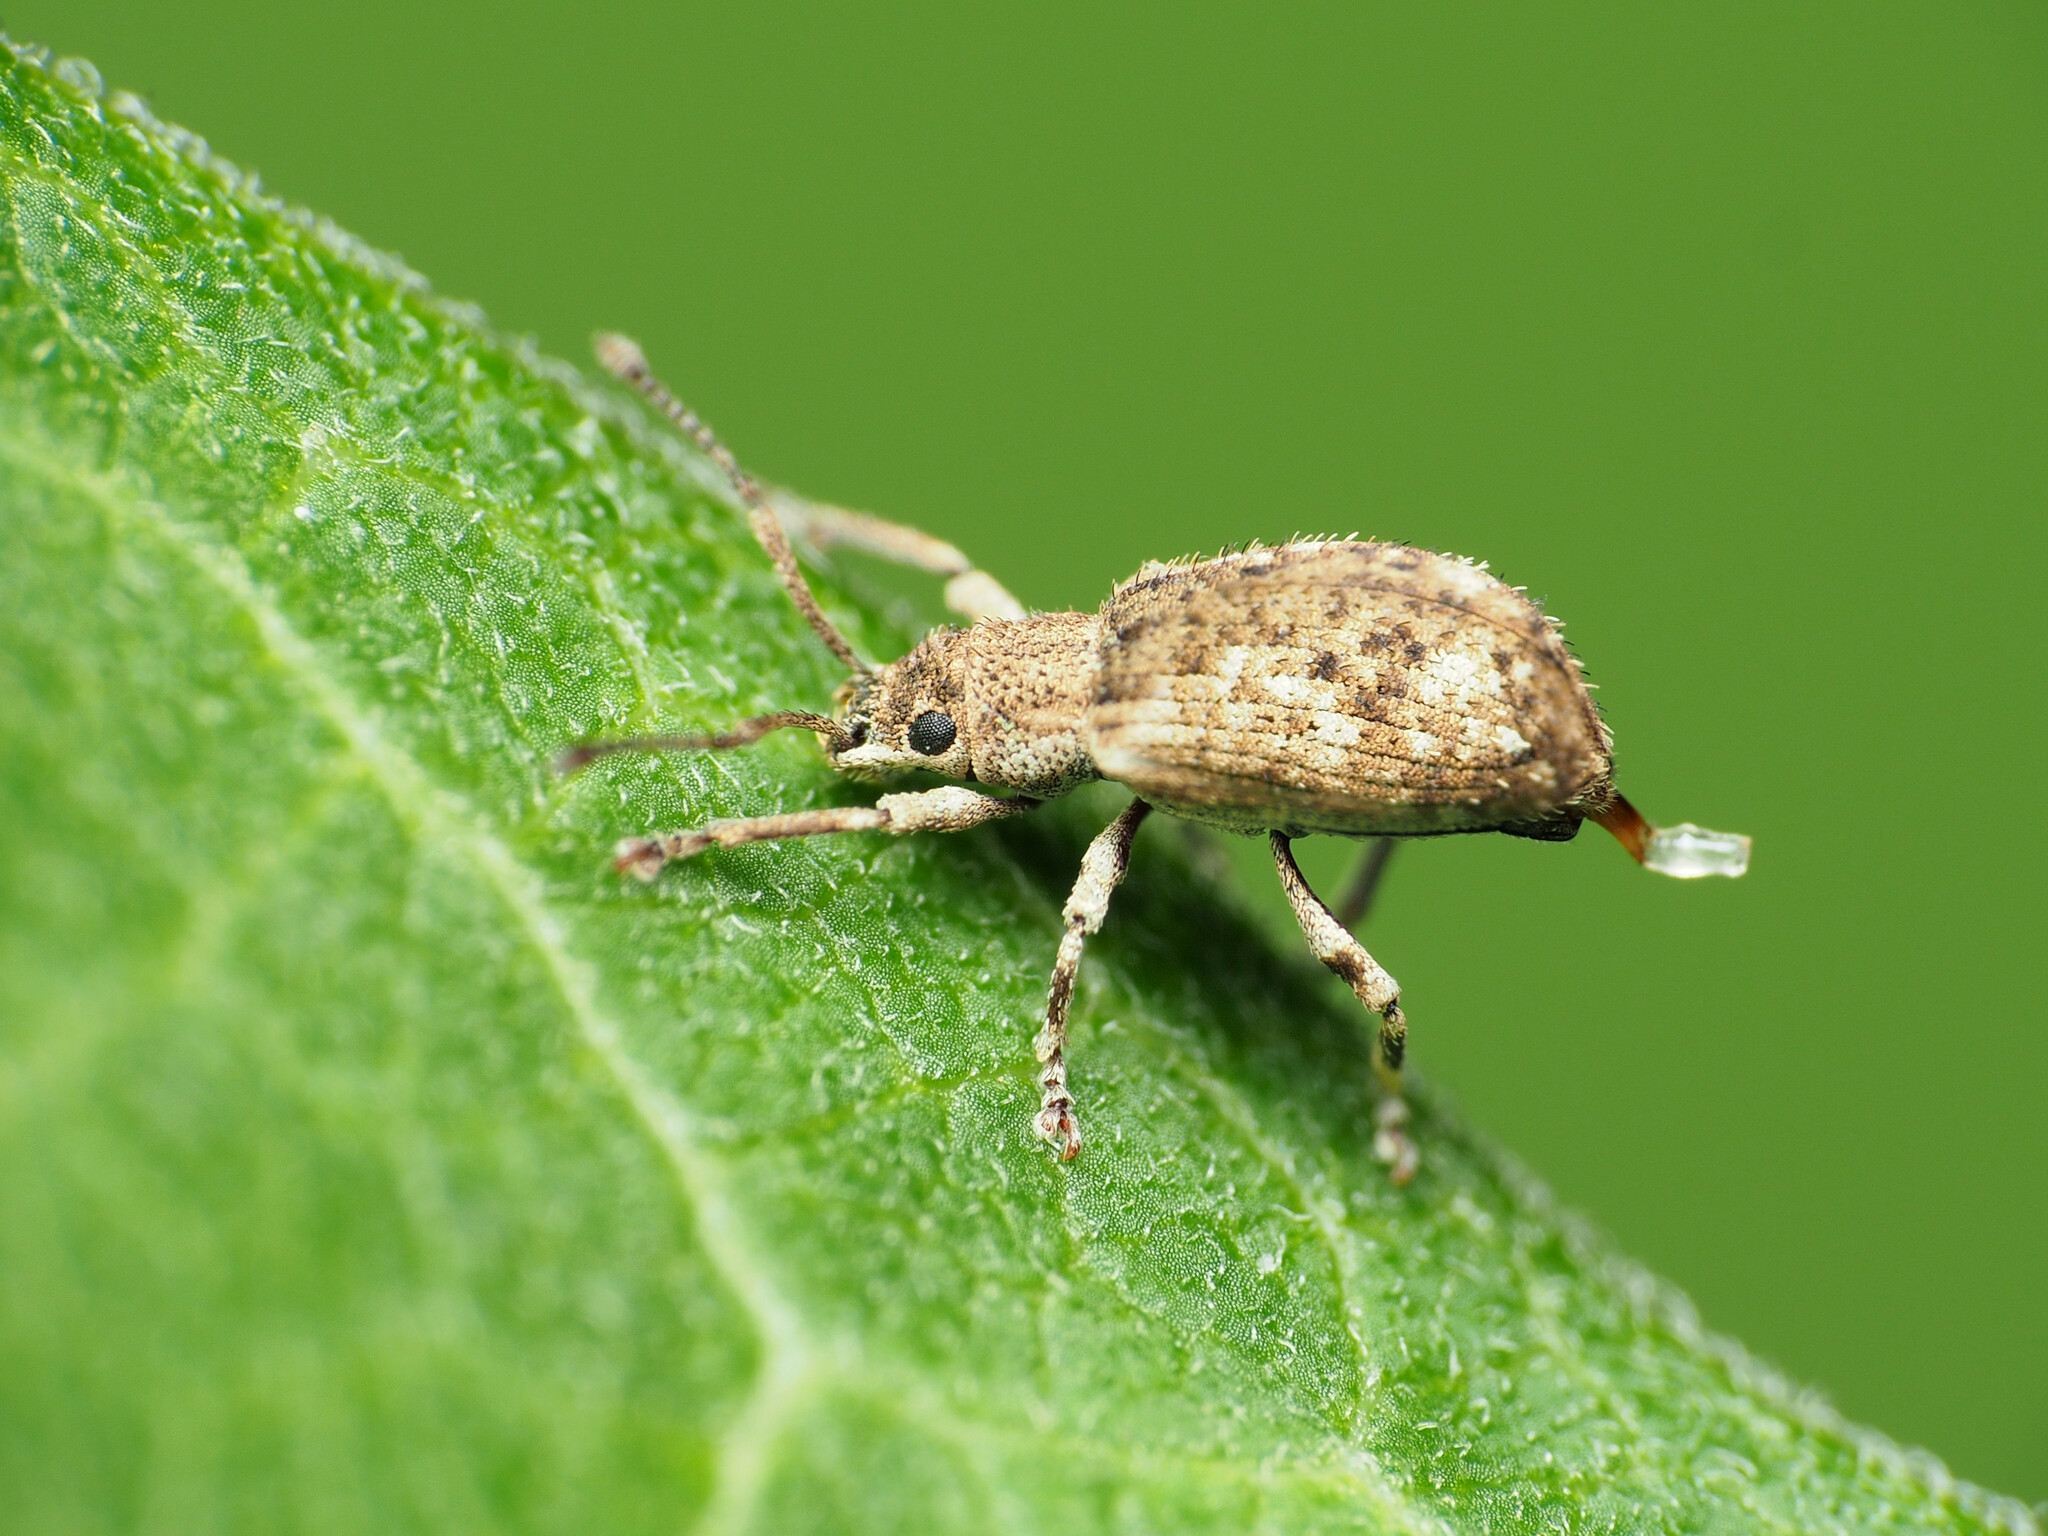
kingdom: Animalia
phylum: Arthropoda
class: Insecta
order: Coleoptera
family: Curculionidae
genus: Pseudoedophrys
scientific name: Pseudoedophrys hilleri
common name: Weevil
